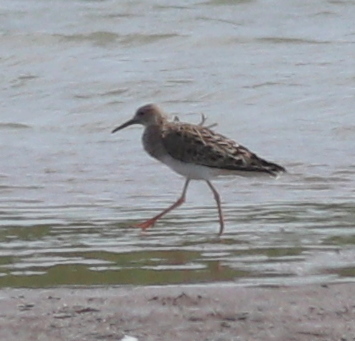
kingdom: Animalia
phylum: Chordata
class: Aves
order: Charadriiformes
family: Scolopacidae
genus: Calidris
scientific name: Calidris pugnax
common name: Ruff
